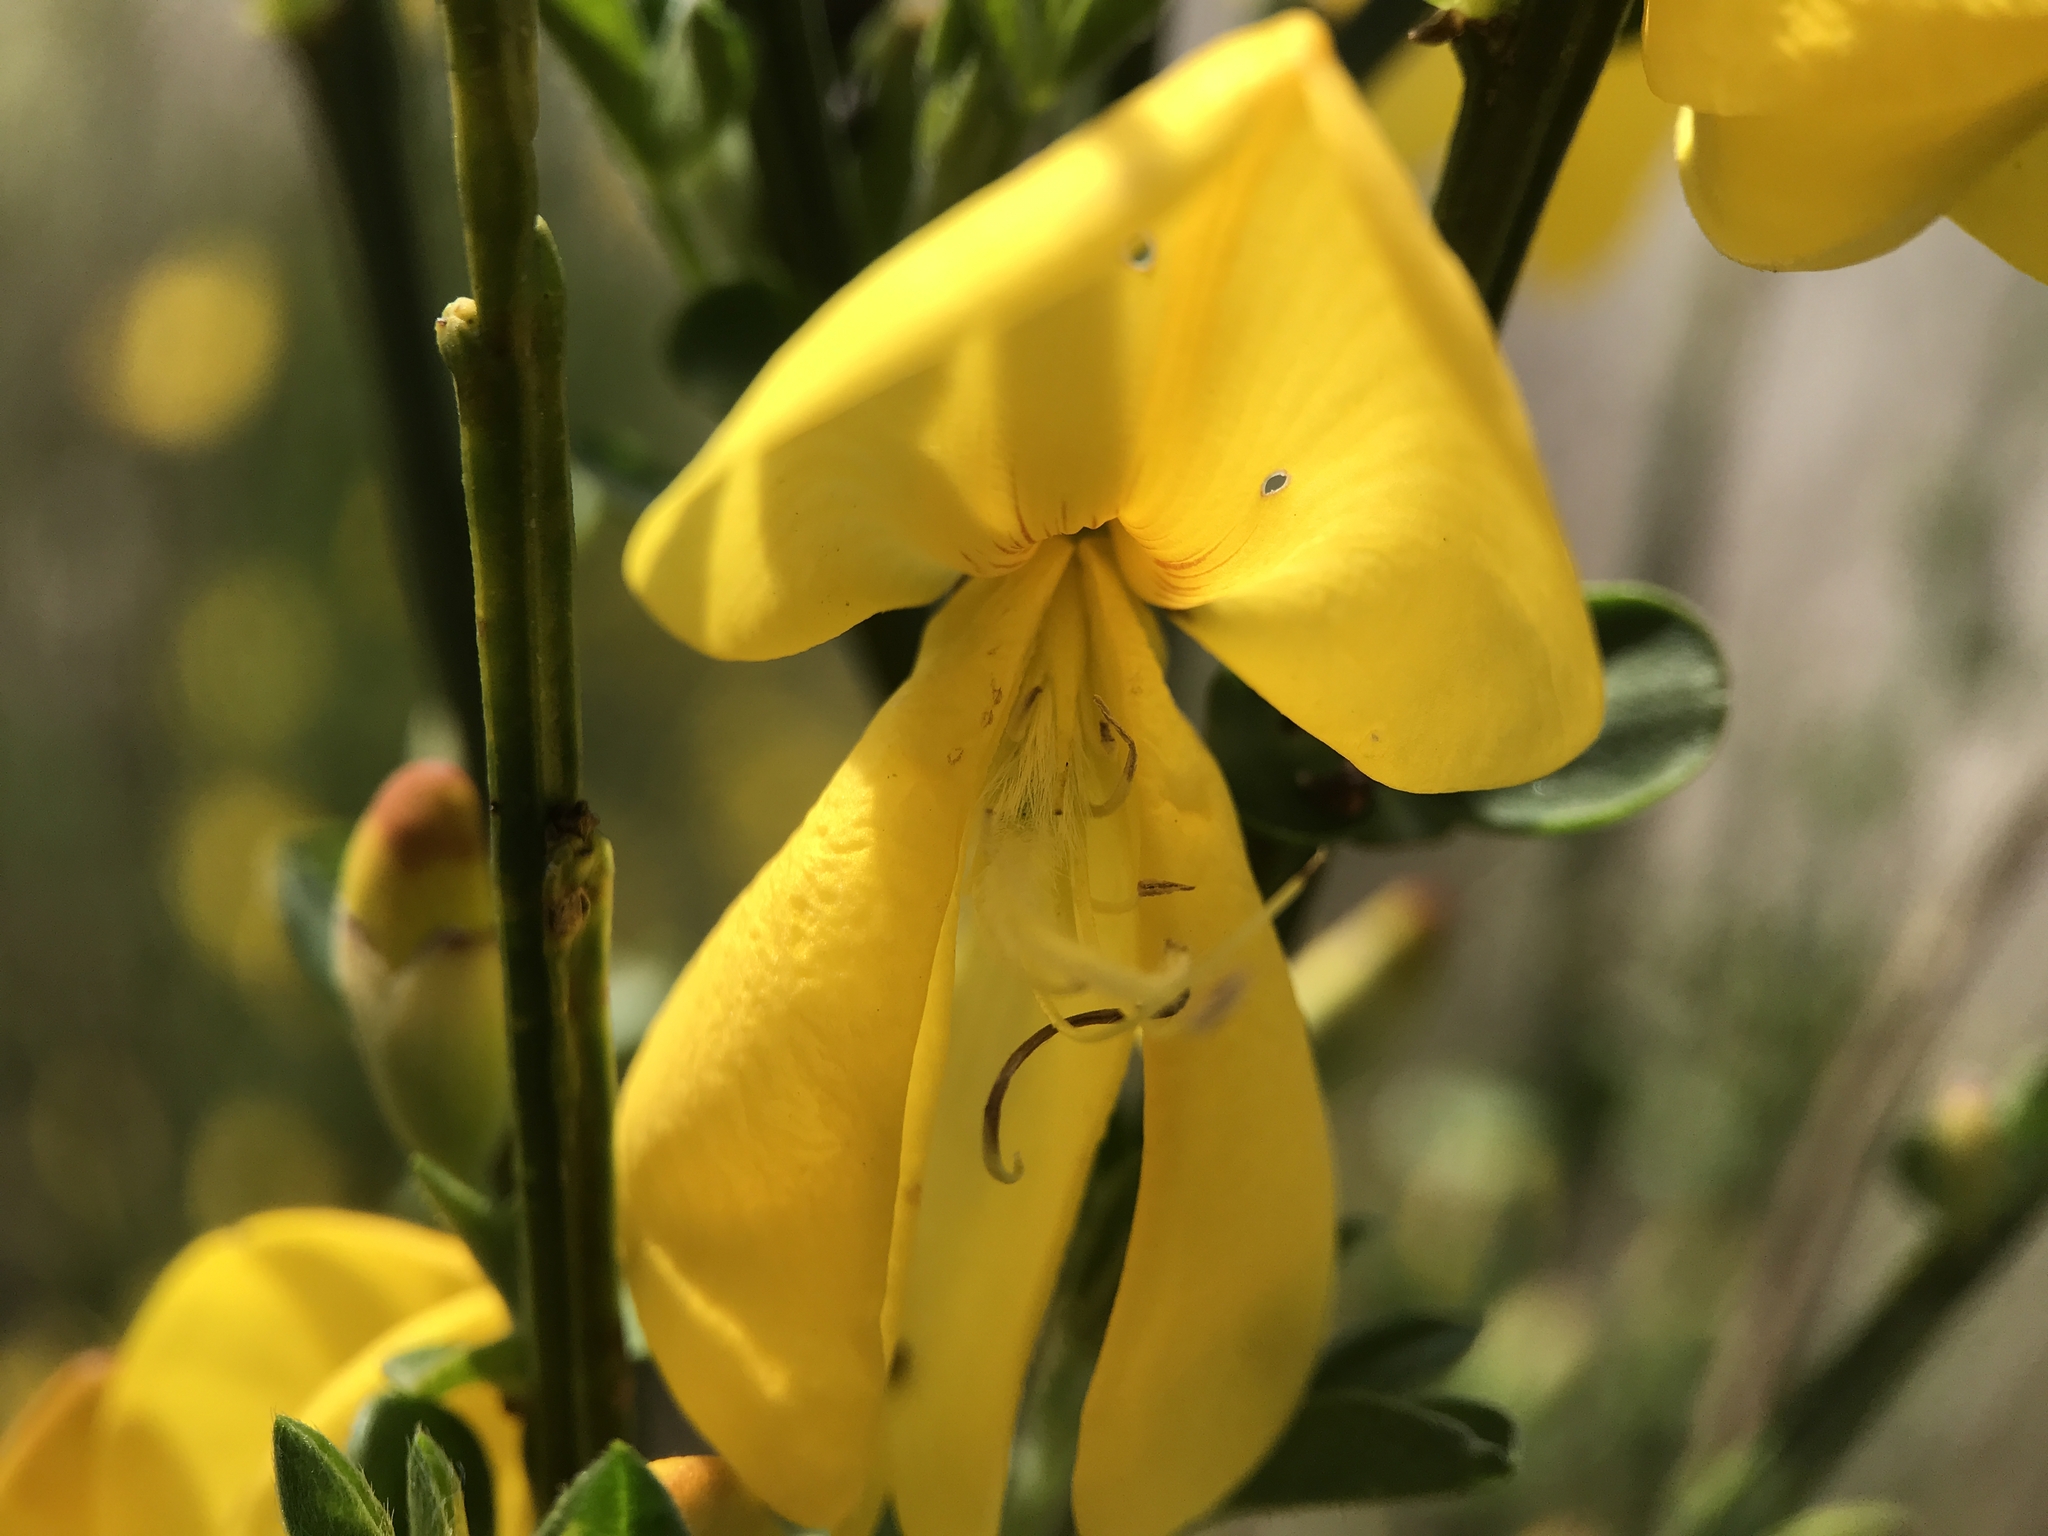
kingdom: Plantae
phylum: Tracheophyta
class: Magnoliopsida
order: Fabales
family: Fabaceae
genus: Cytisus
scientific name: Cytisus scoparius
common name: Scotch broom
